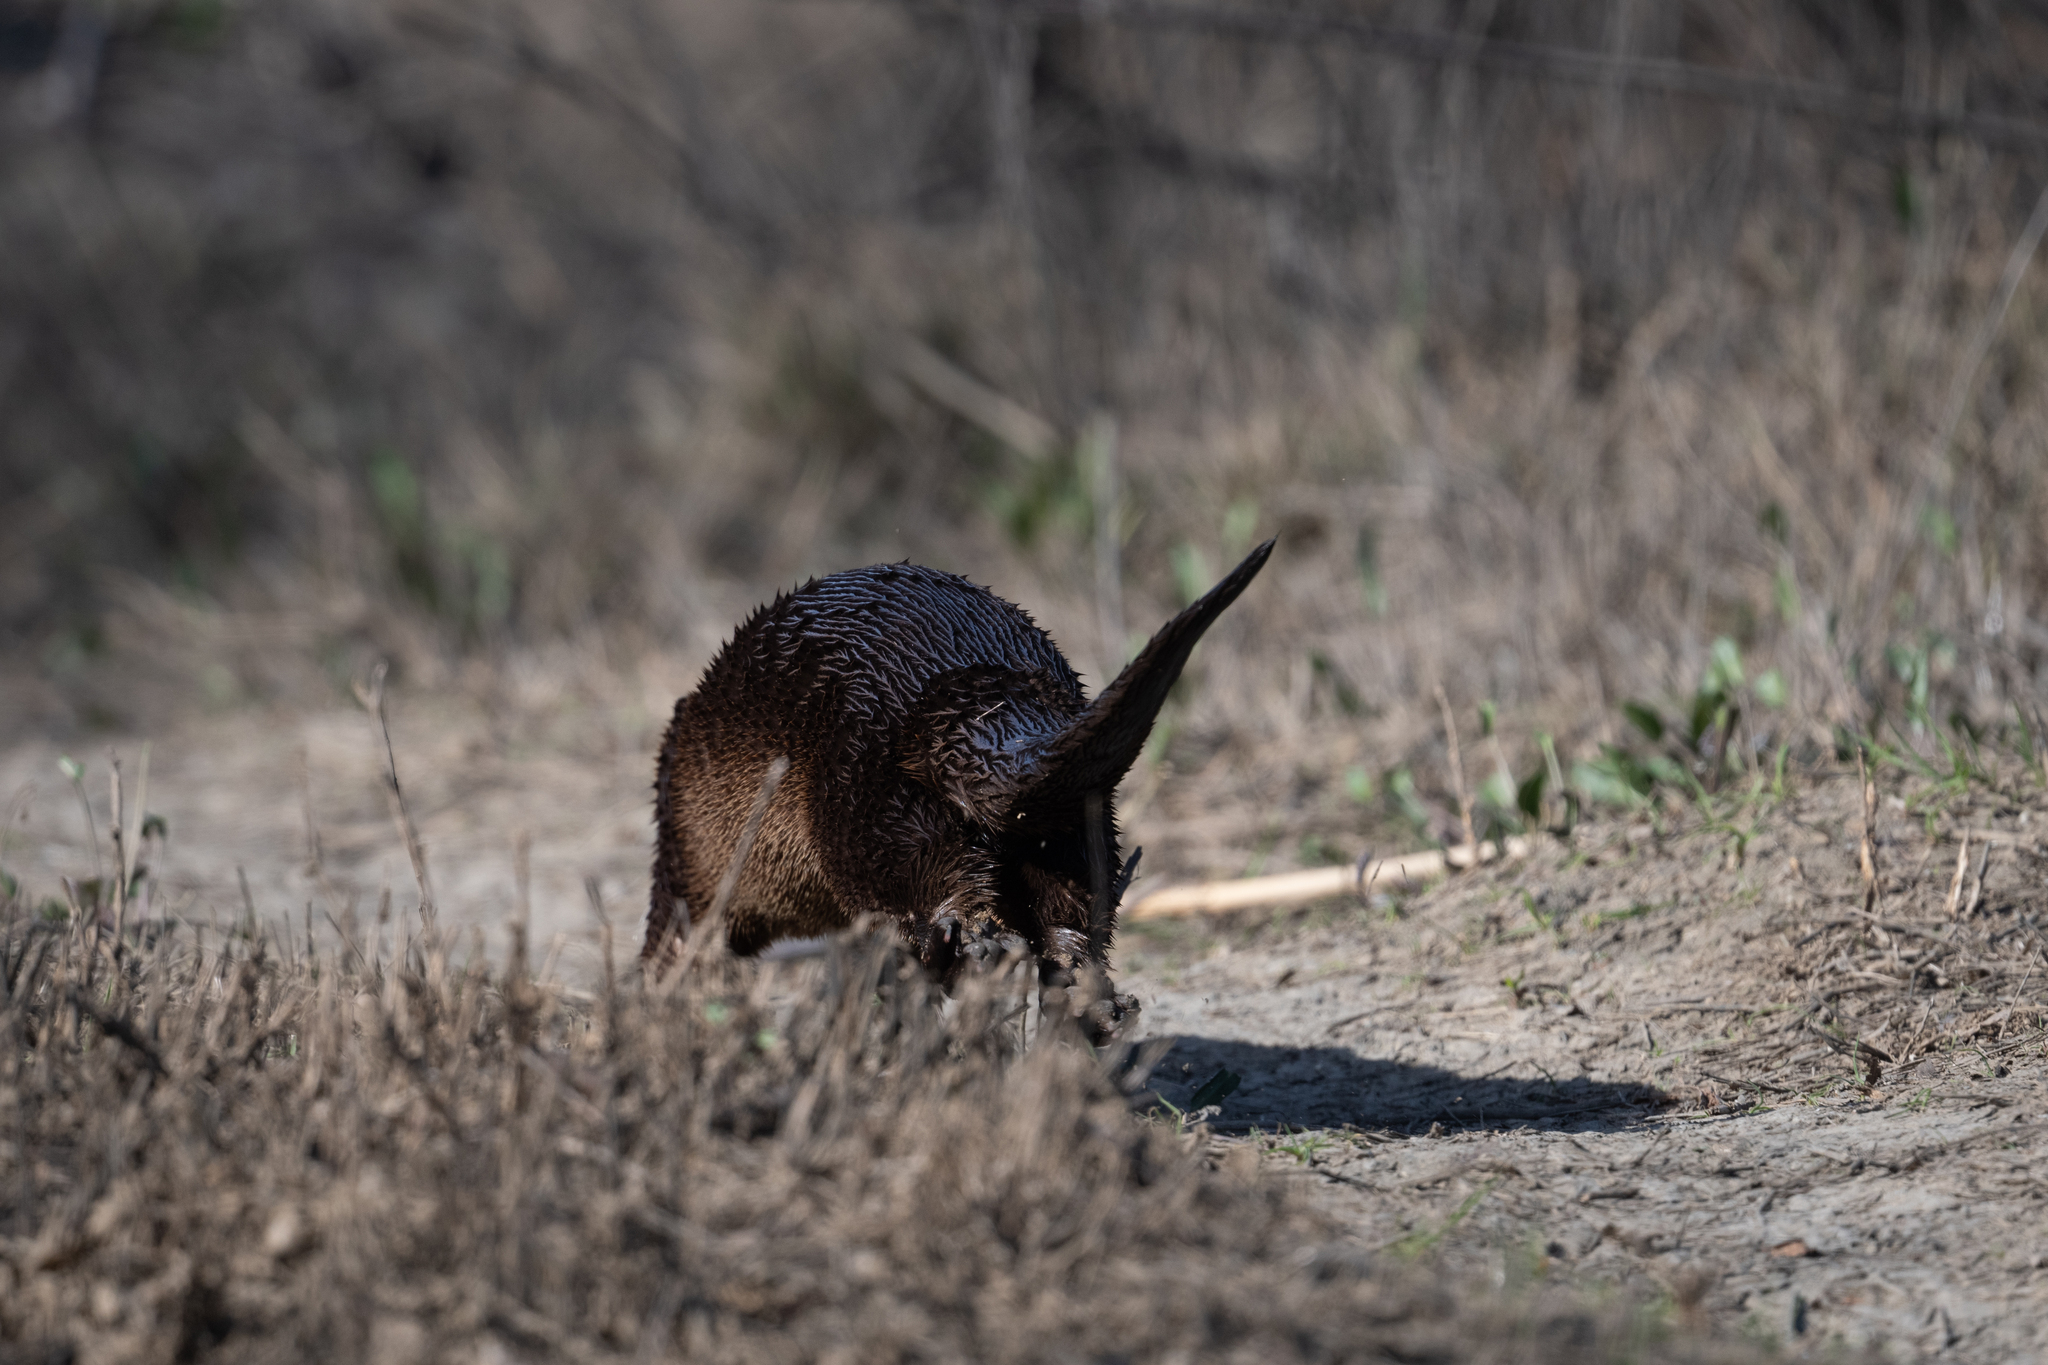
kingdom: Animalia
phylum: Chordata
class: Mammalia
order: Carnivora
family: Mustelidae
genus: Lontra
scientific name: Lontra canadensis
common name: North american river otter
